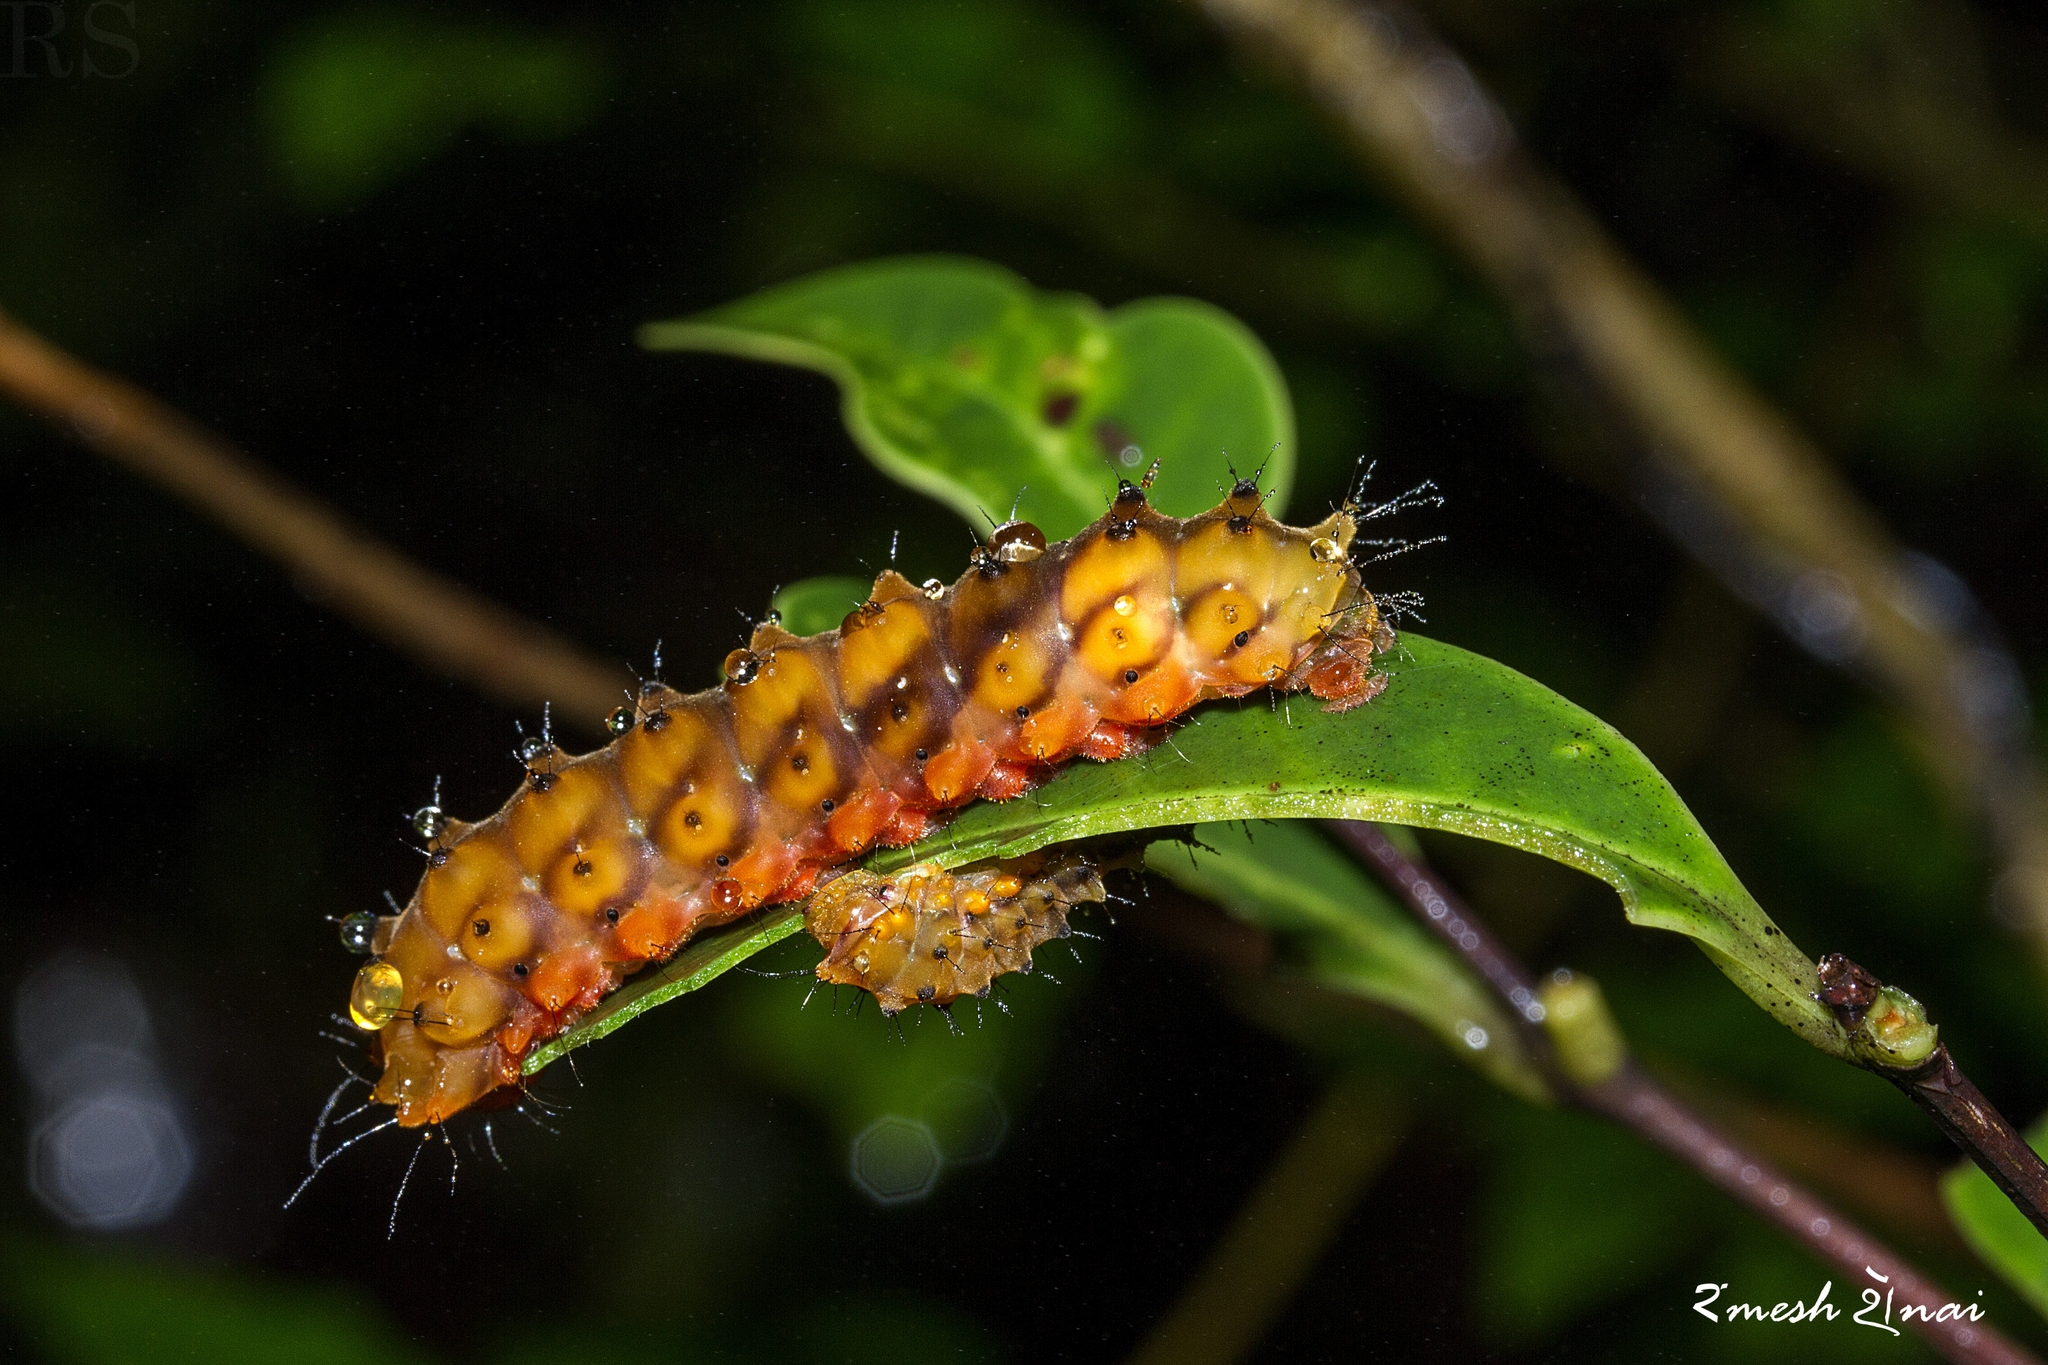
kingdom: Animalia
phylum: Arthropoda
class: Insecta
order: Lepidoptera
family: Zygaenidae
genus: Eterusia
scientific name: Eterusia aedea
